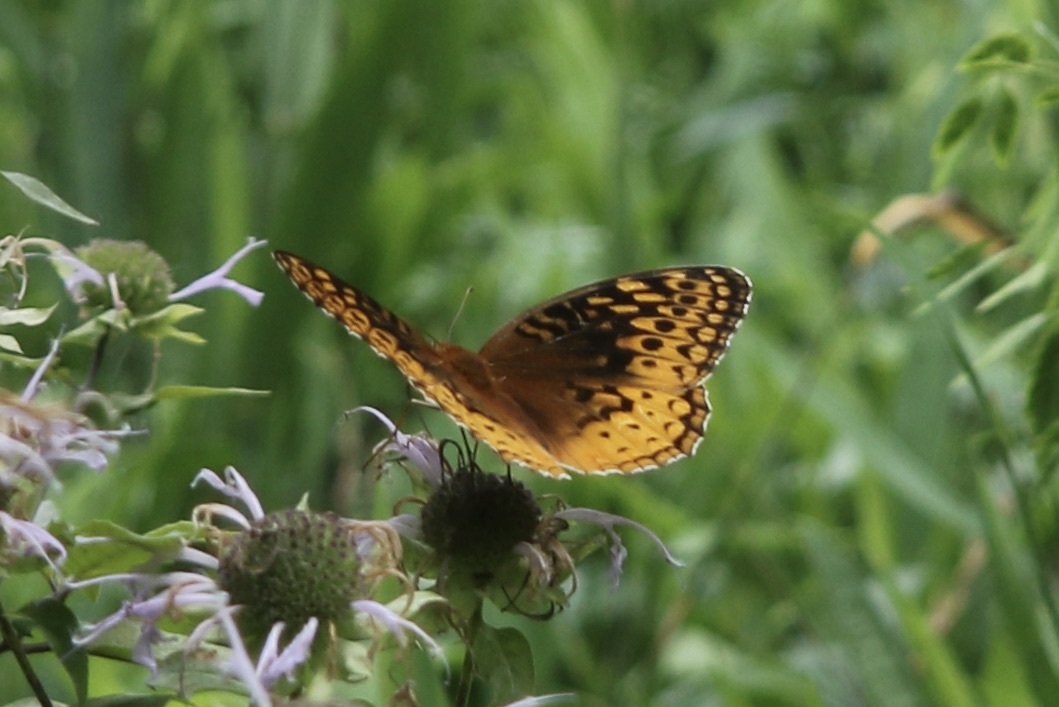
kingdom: Animalia
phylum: Arthropoda
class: Insecta
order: Lepidoptera
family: Nymphalidae
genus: Speyeria
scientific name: Speyeria cybele
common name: Great spangled fritillary
